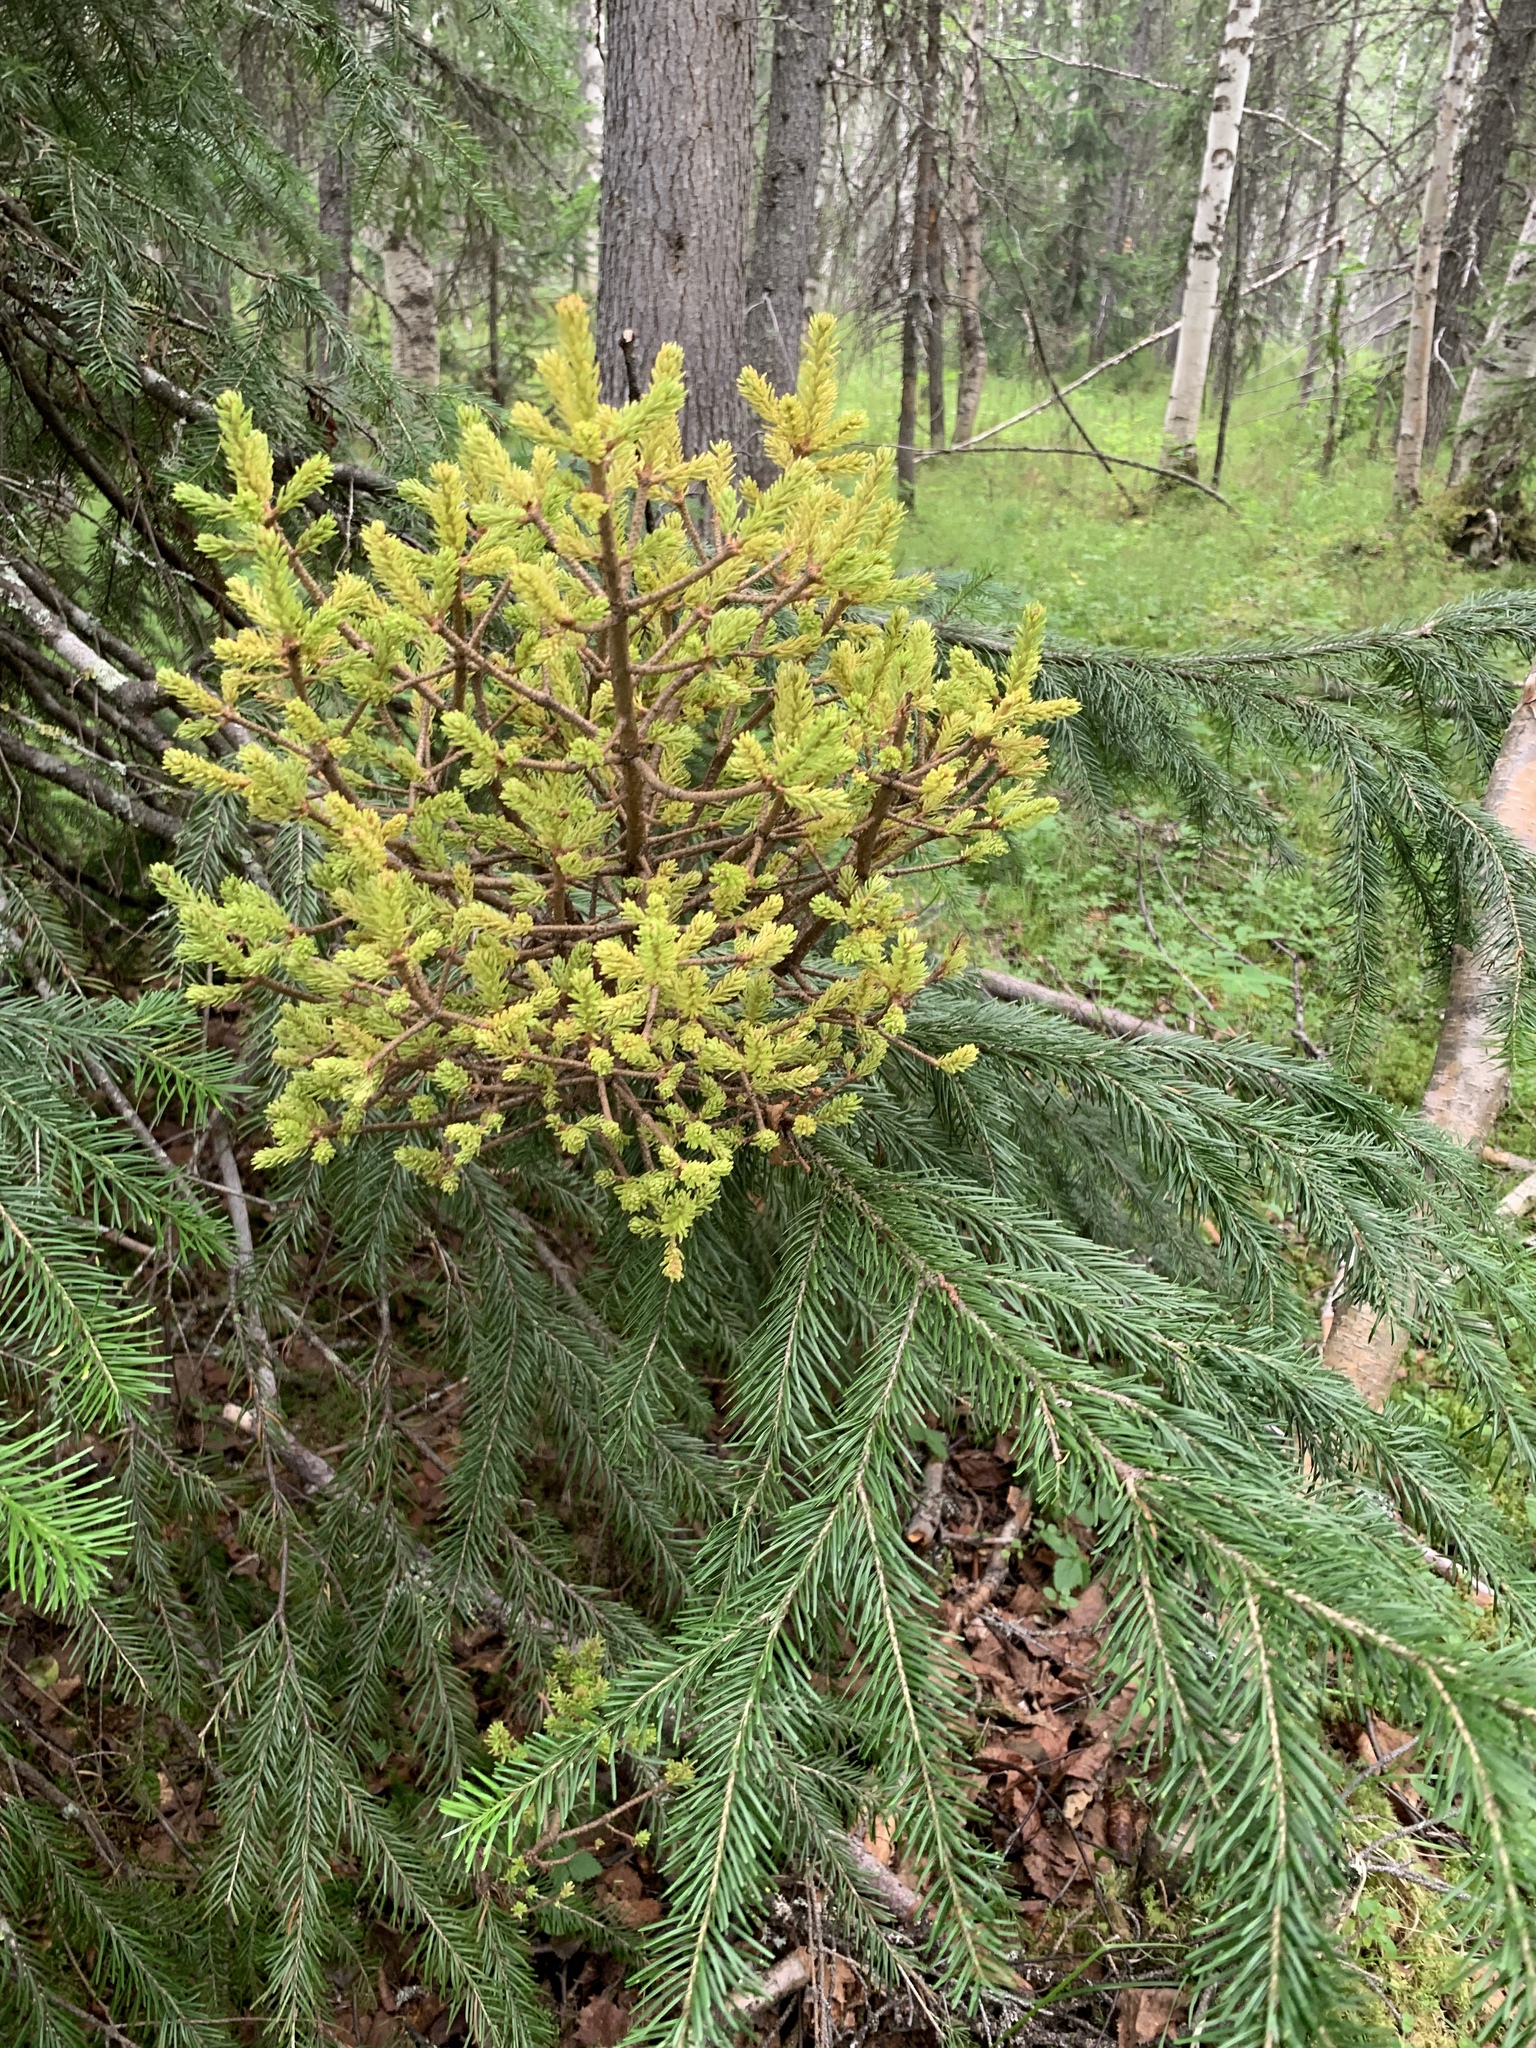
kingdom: Plantae
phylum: Tracheophyta
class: Pinopsida
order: Pinales
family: Pinaceae
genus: Abies
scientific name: Abies sibirica
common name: Siberian fir
